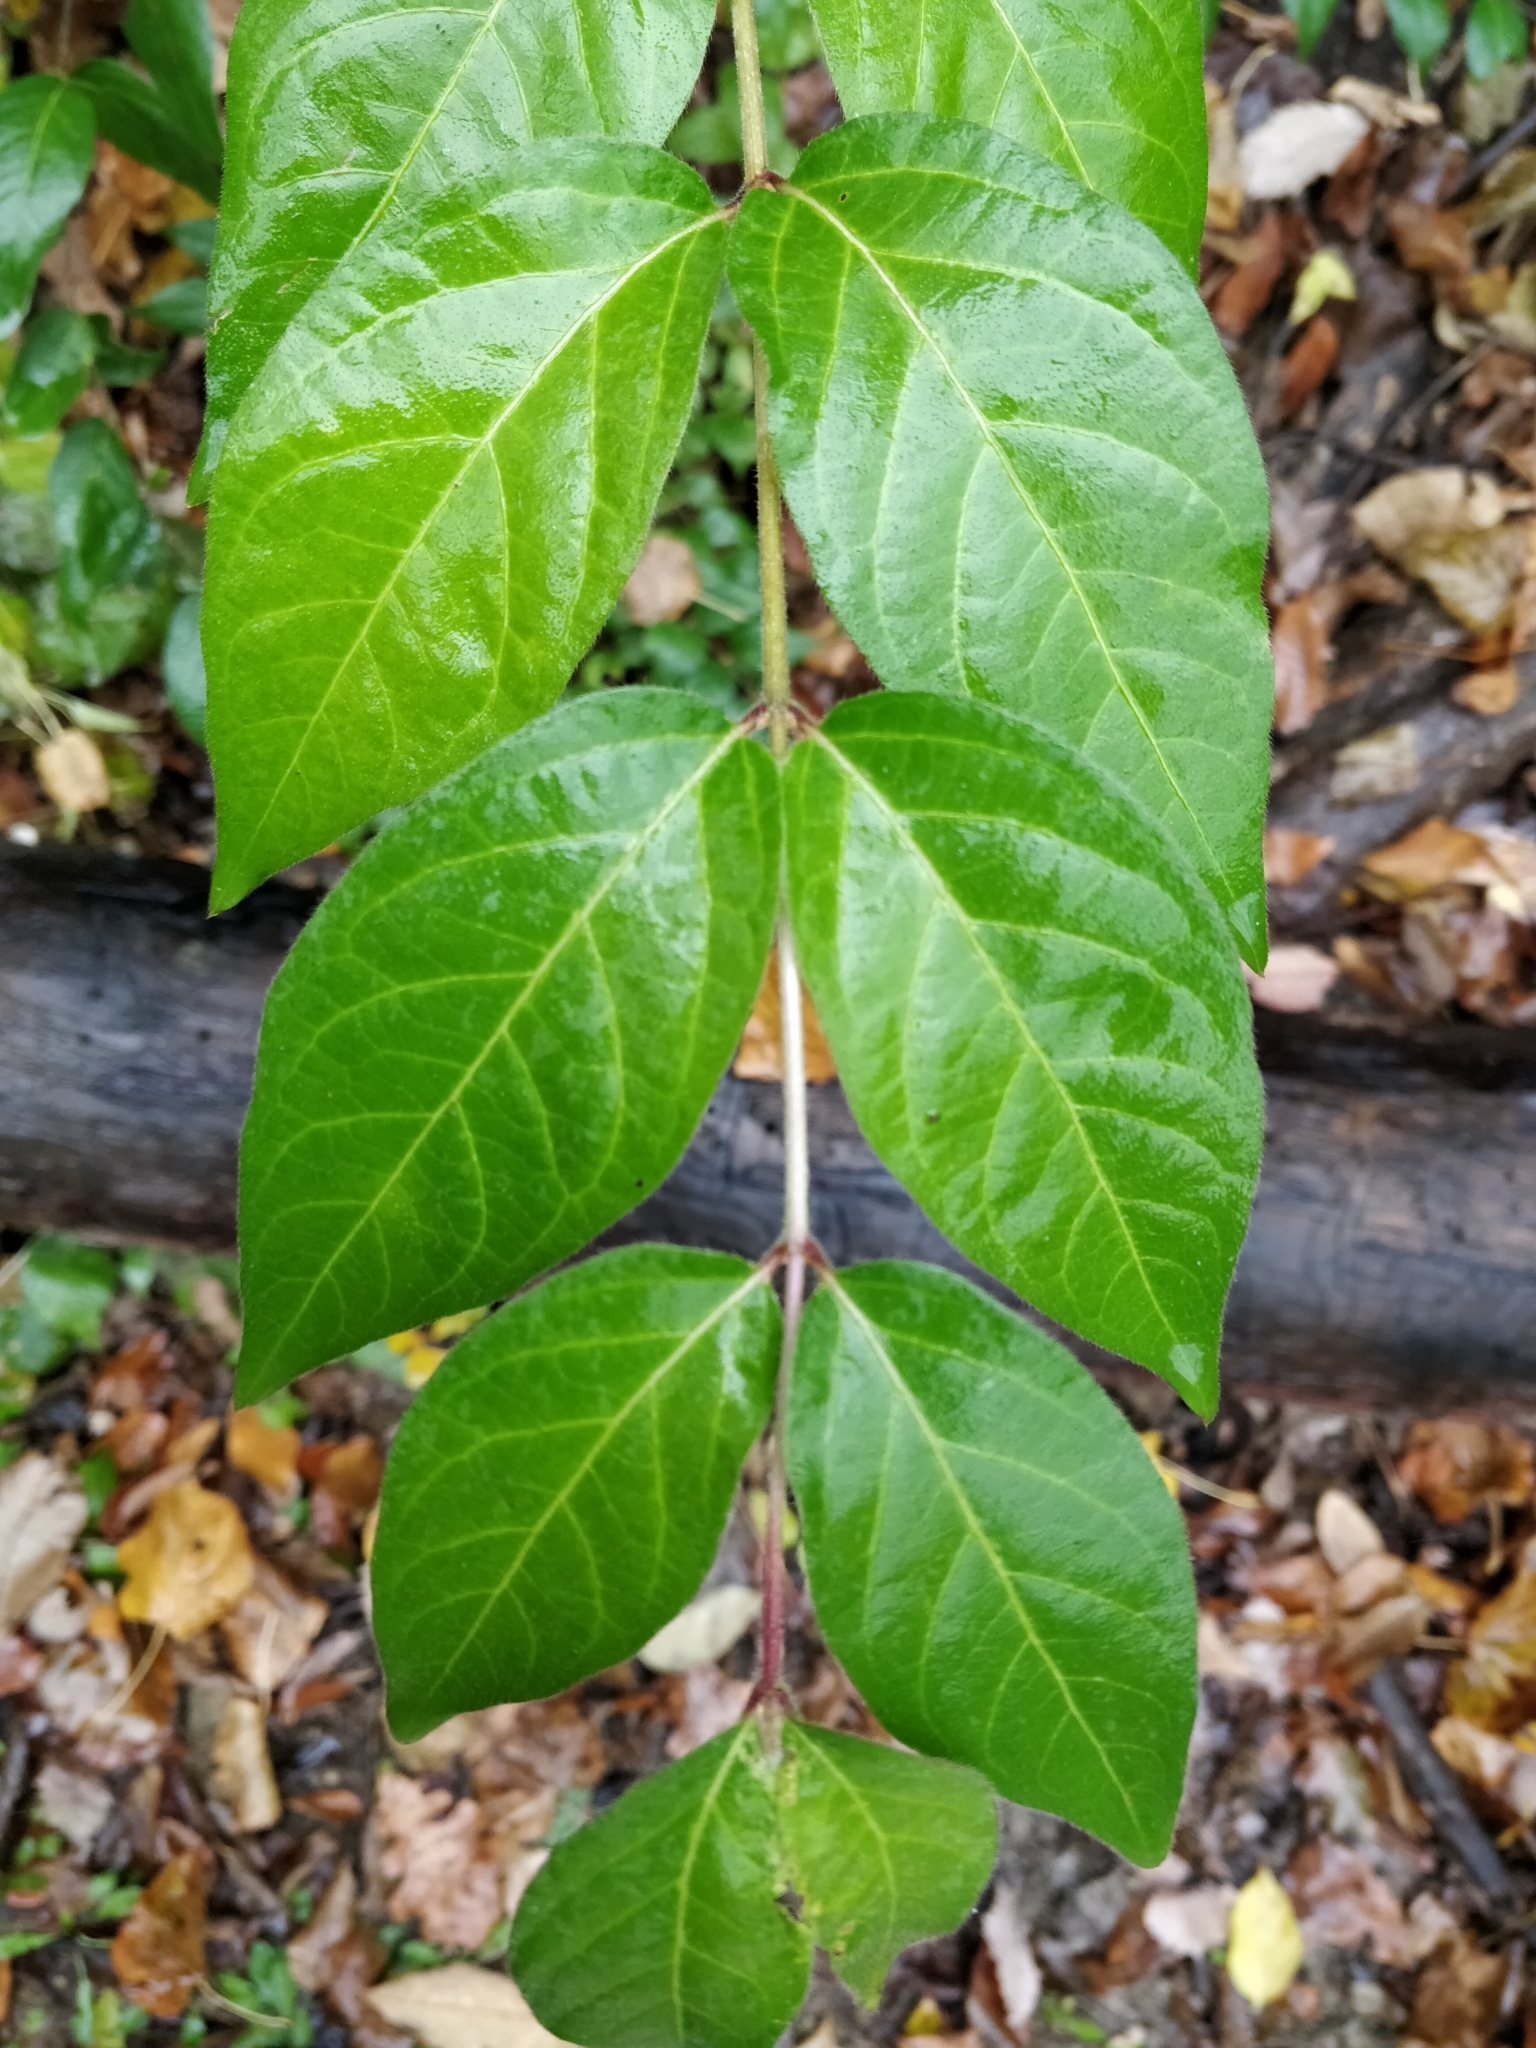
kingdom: Plantae
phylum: Tracheophyta
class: Magnoliopsida
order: Dipsacales
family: Caprifoliaceae
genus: Lonicera
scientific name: Lonicera maackii
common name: Amur honeysuckle
